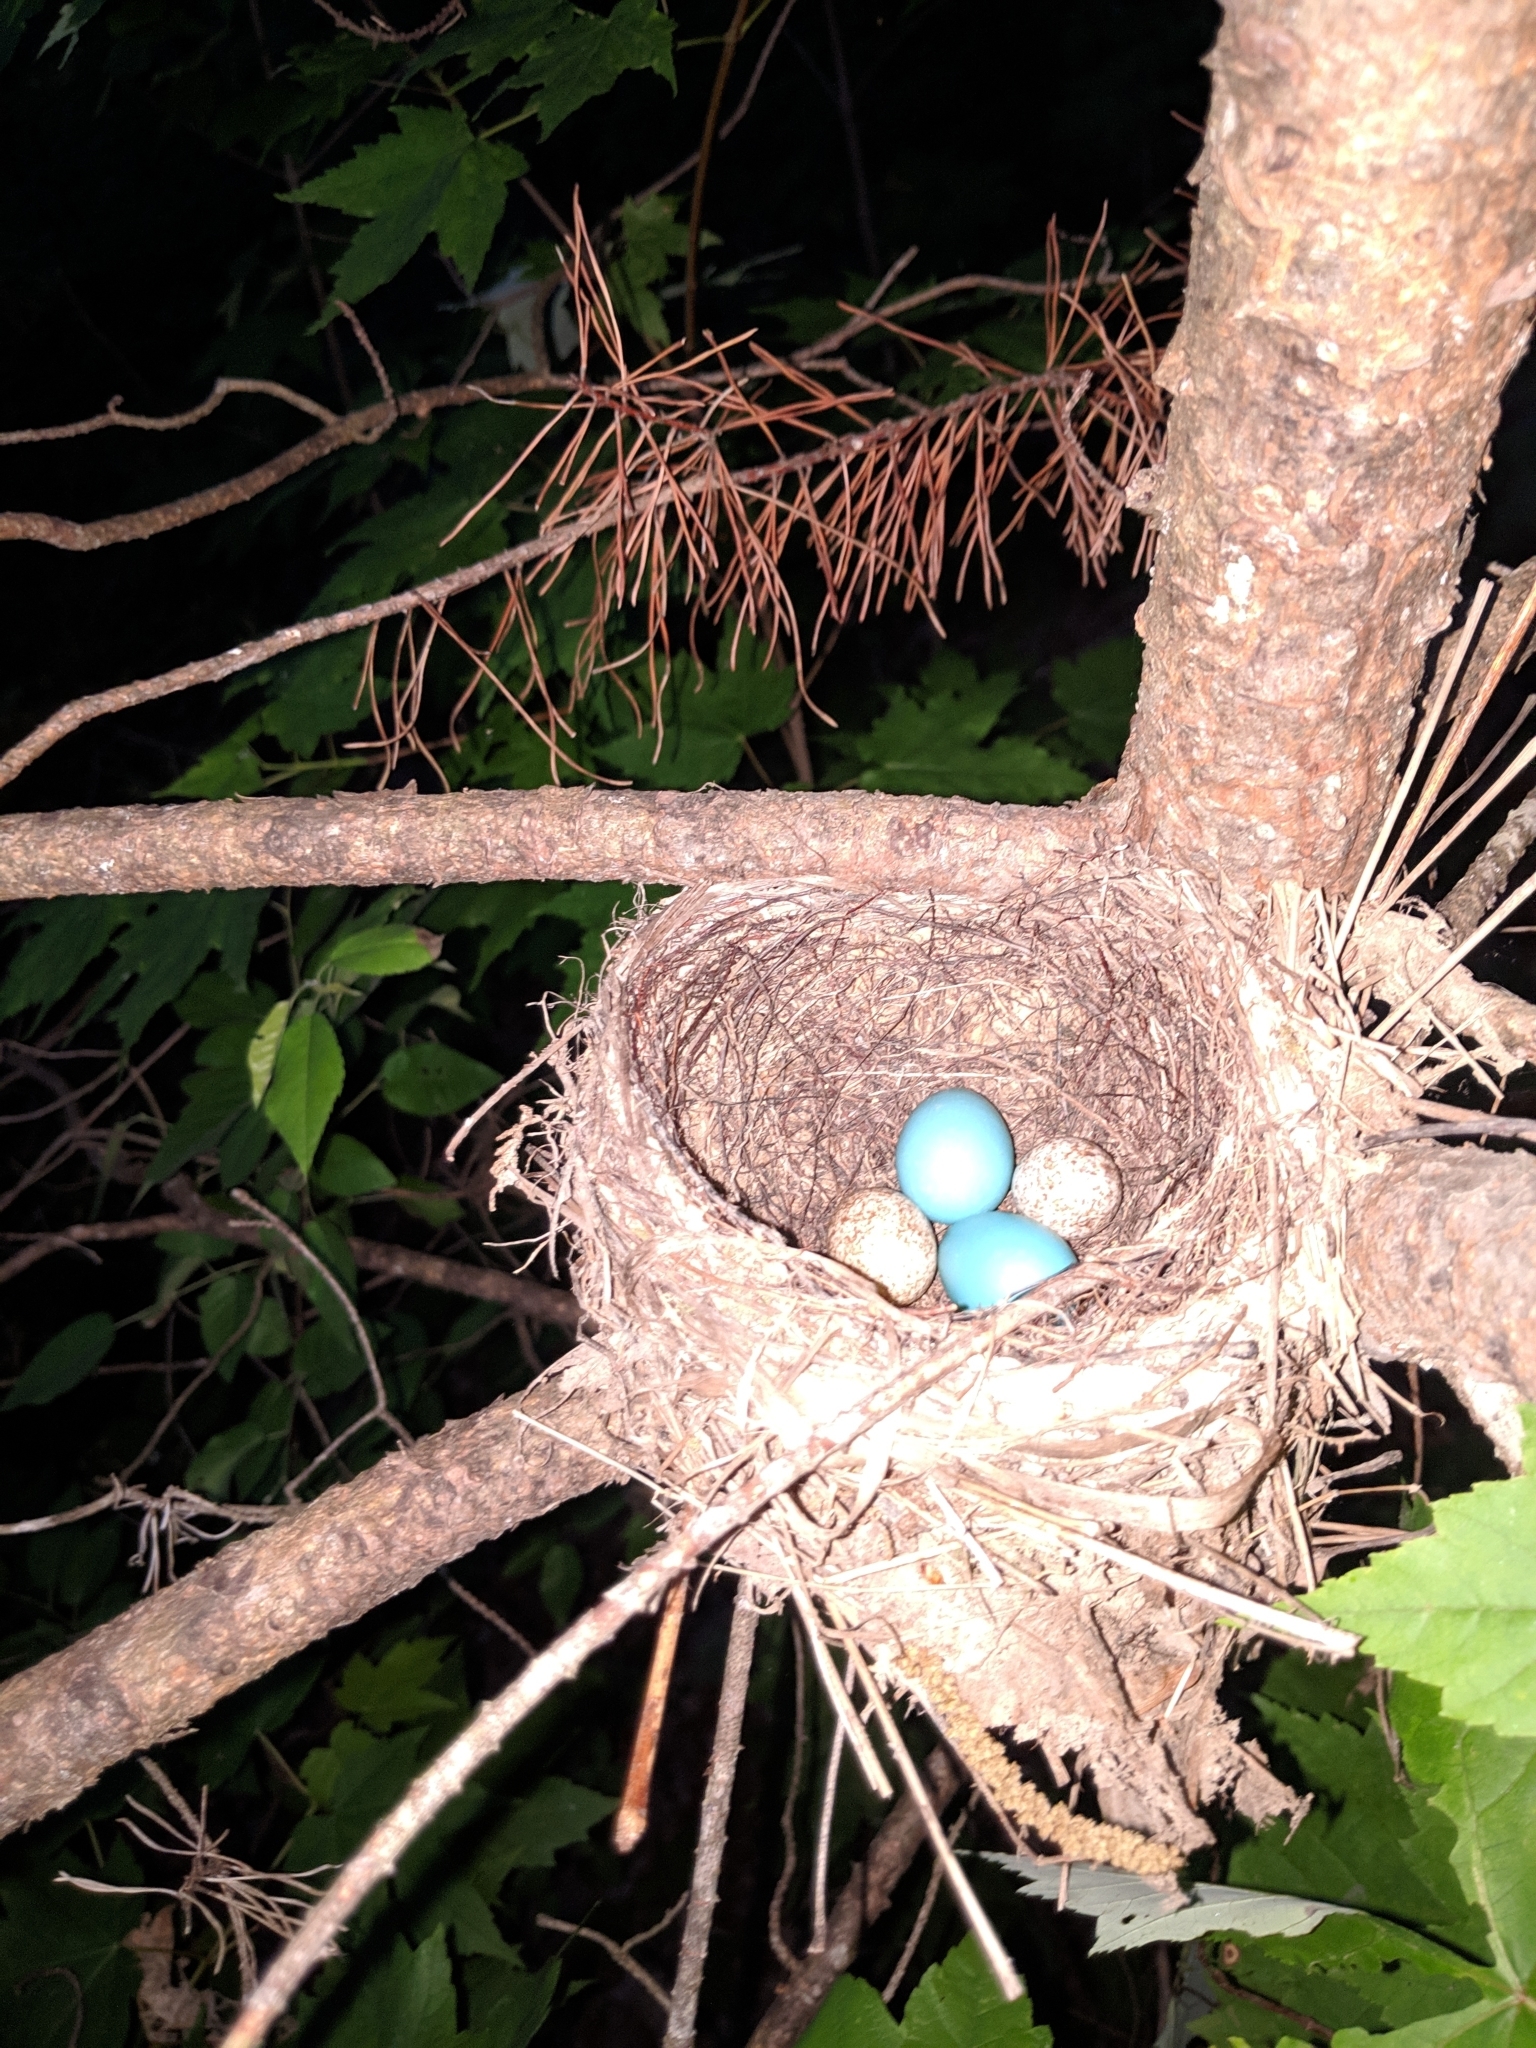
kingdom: Animalia
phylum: Chordata
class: Aves
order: Passeriformes
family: Turdidae
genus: Hylocichla
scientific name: Hylocichla mustelina
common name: Wood thrush
